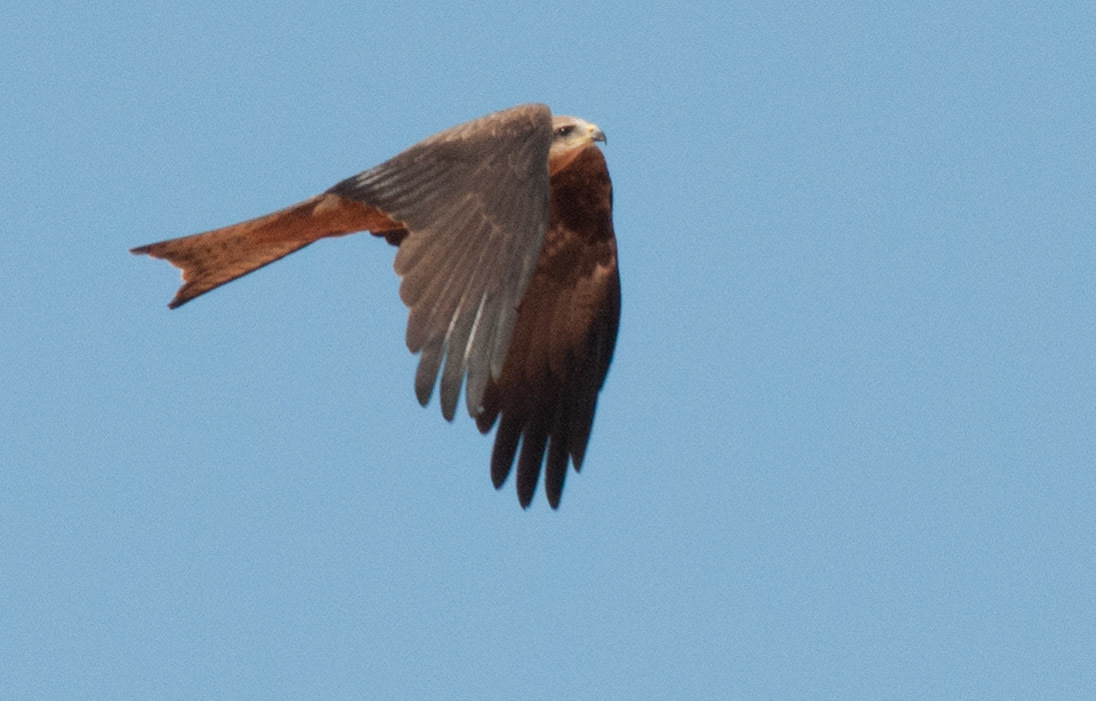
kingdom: Animalia
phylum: Chordata
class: Aves
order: Accipitriformes
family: Accipitridae
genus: Milvus
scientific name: Milvus migrans
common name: Black kite
